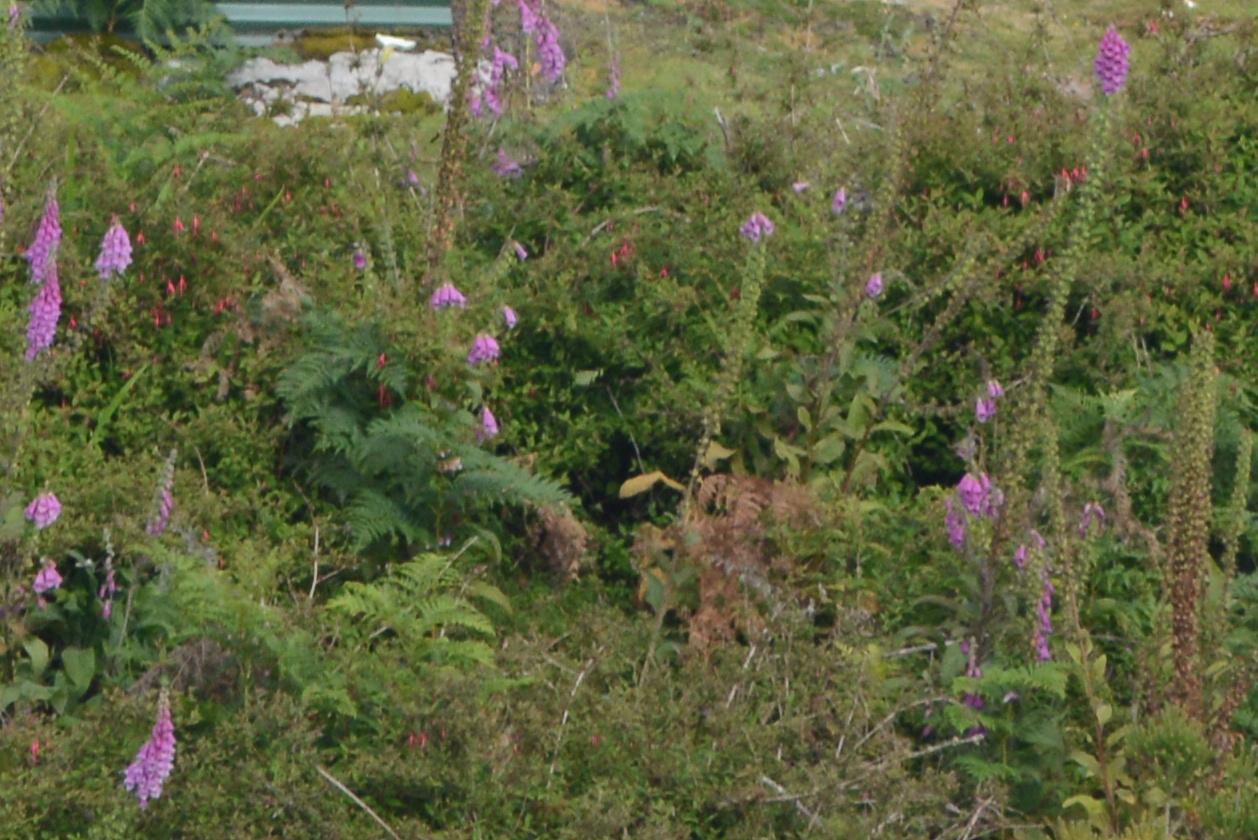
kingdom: Plantae
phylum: Tracheophyta
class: Magnoliopsida
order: Myrtales
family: Onagraceae
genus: Fuchsia
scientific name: Fuchsia magellanica
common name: Hardy fuchsia
